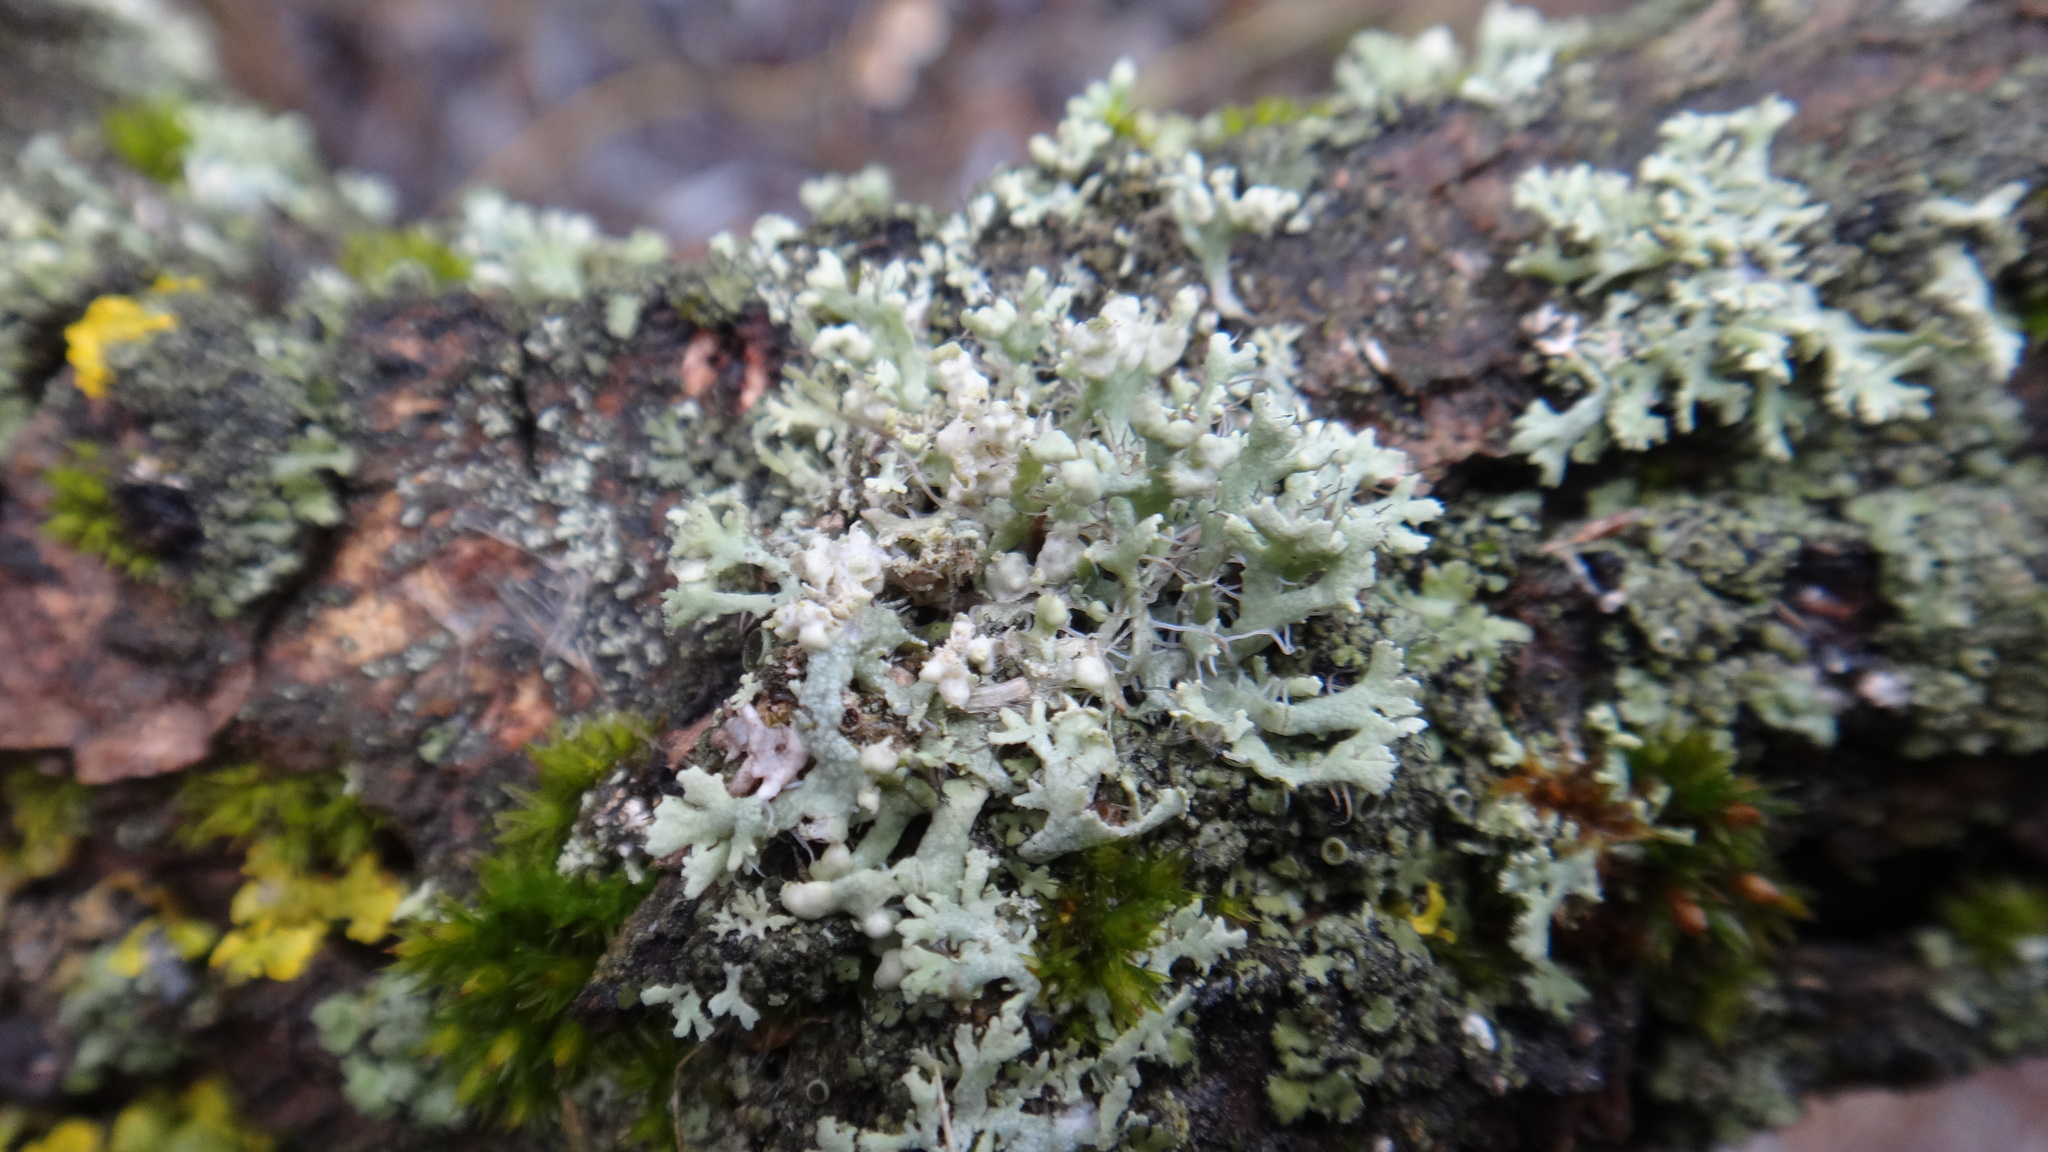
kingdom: Fungi
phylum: Ascomycota
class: Lecanoromycetes
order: Caliciales
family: Physciaceae
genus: Physcia
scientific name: Physcia adscendens
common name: Hooded rosette lichen
